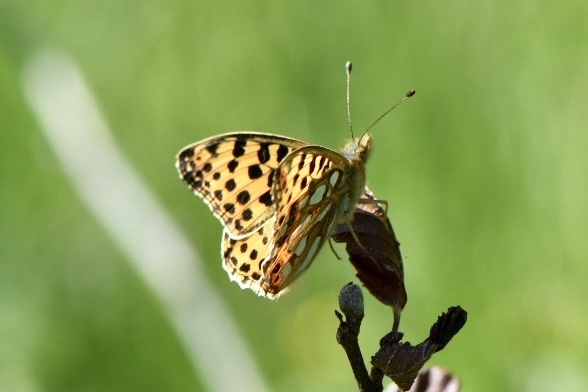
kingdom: Animalia
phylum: Arthropoda
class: Insecta
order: Lepidoptera
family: Nymphalidae
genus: Issoria
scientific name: Issoria lathonia
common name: Queen of spain fritillary
